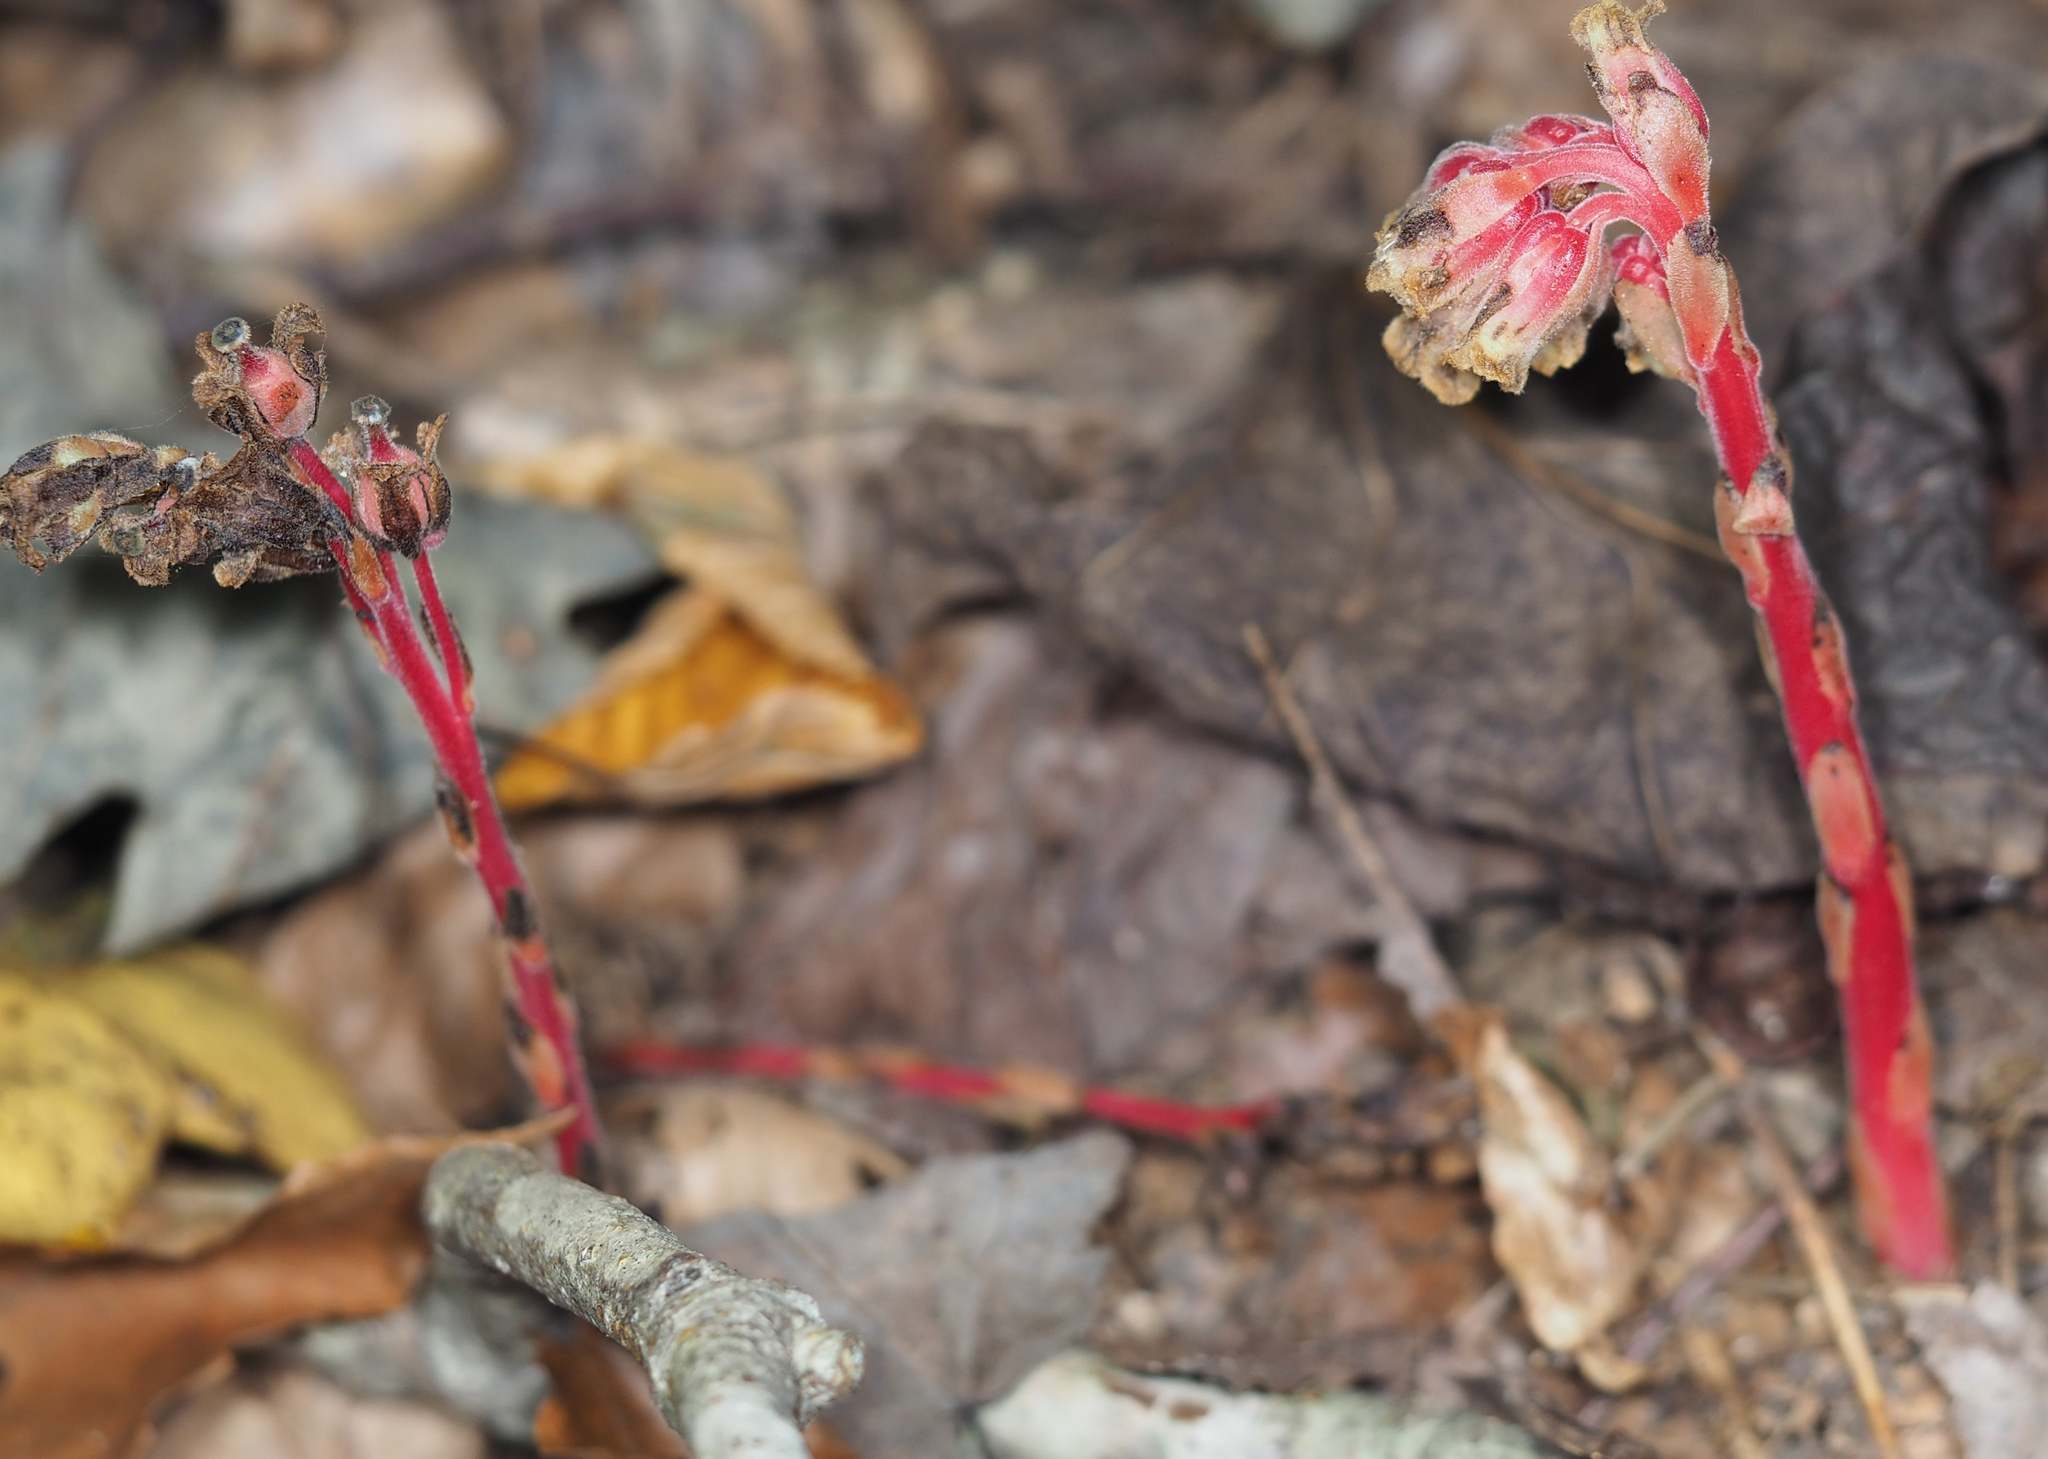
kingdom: Plantae
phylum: Tracheophyta
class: Magnoliopsida
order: Ericales
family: Ericaceae
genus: Hypopitys
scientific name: Hypopitys monotropa
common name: Yellow bird's-nest
